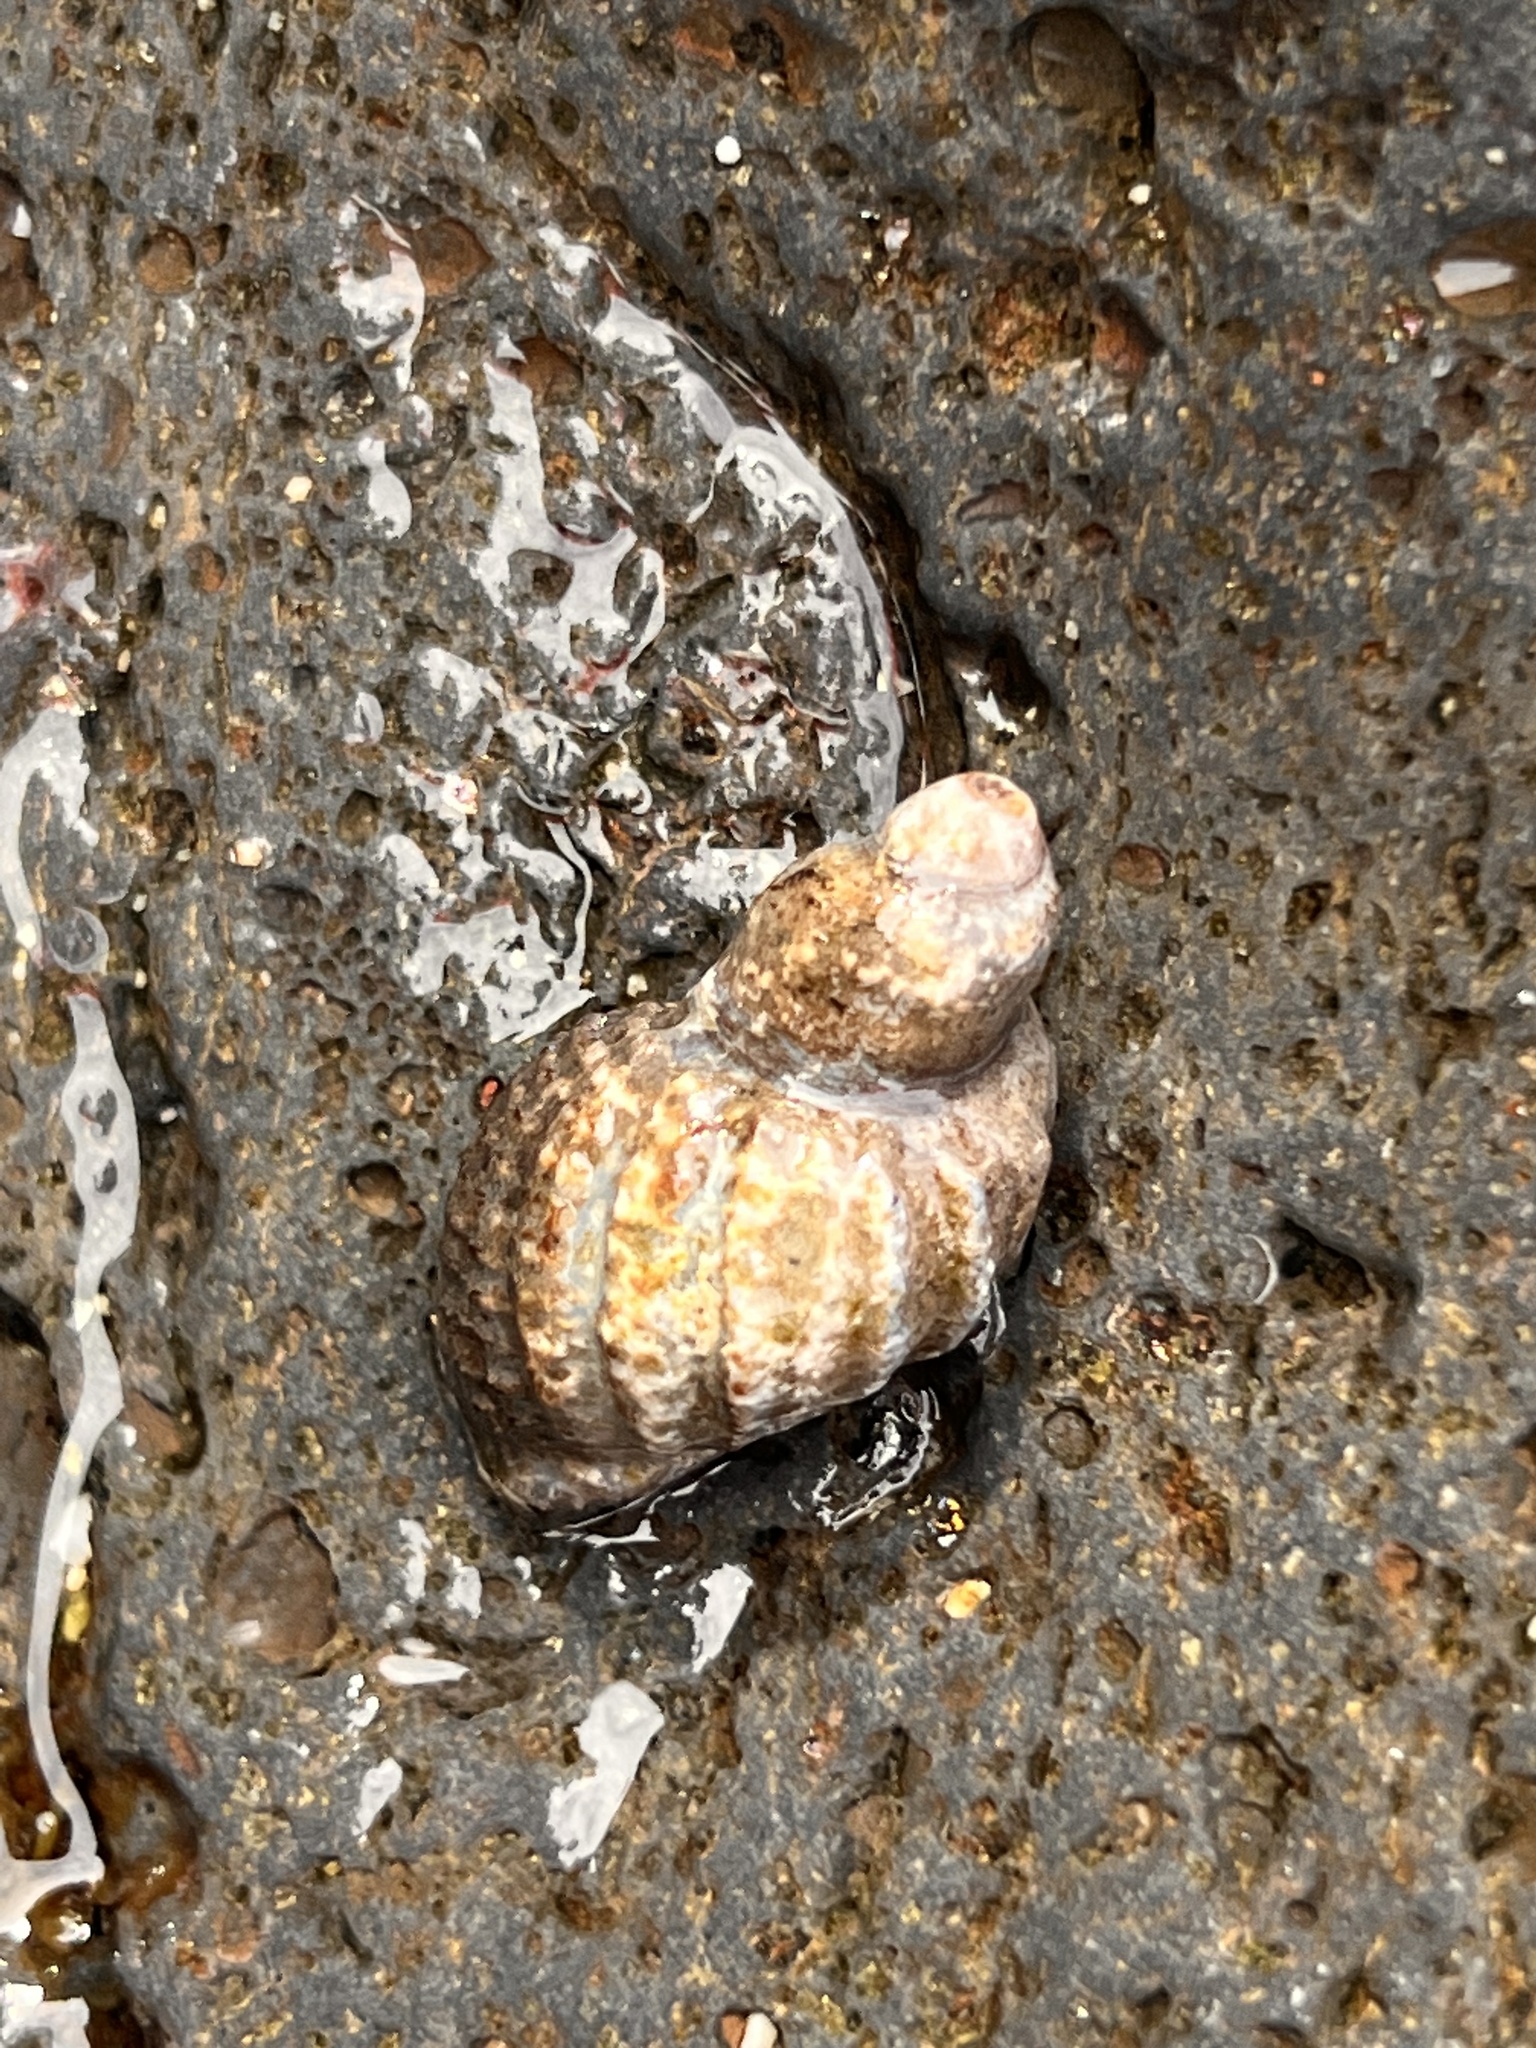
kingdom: Animalia
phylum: Mollusca
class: Gastropoda
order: Neogastropoda
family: Muricidae
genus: Neothais
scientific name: Neothais harpa
